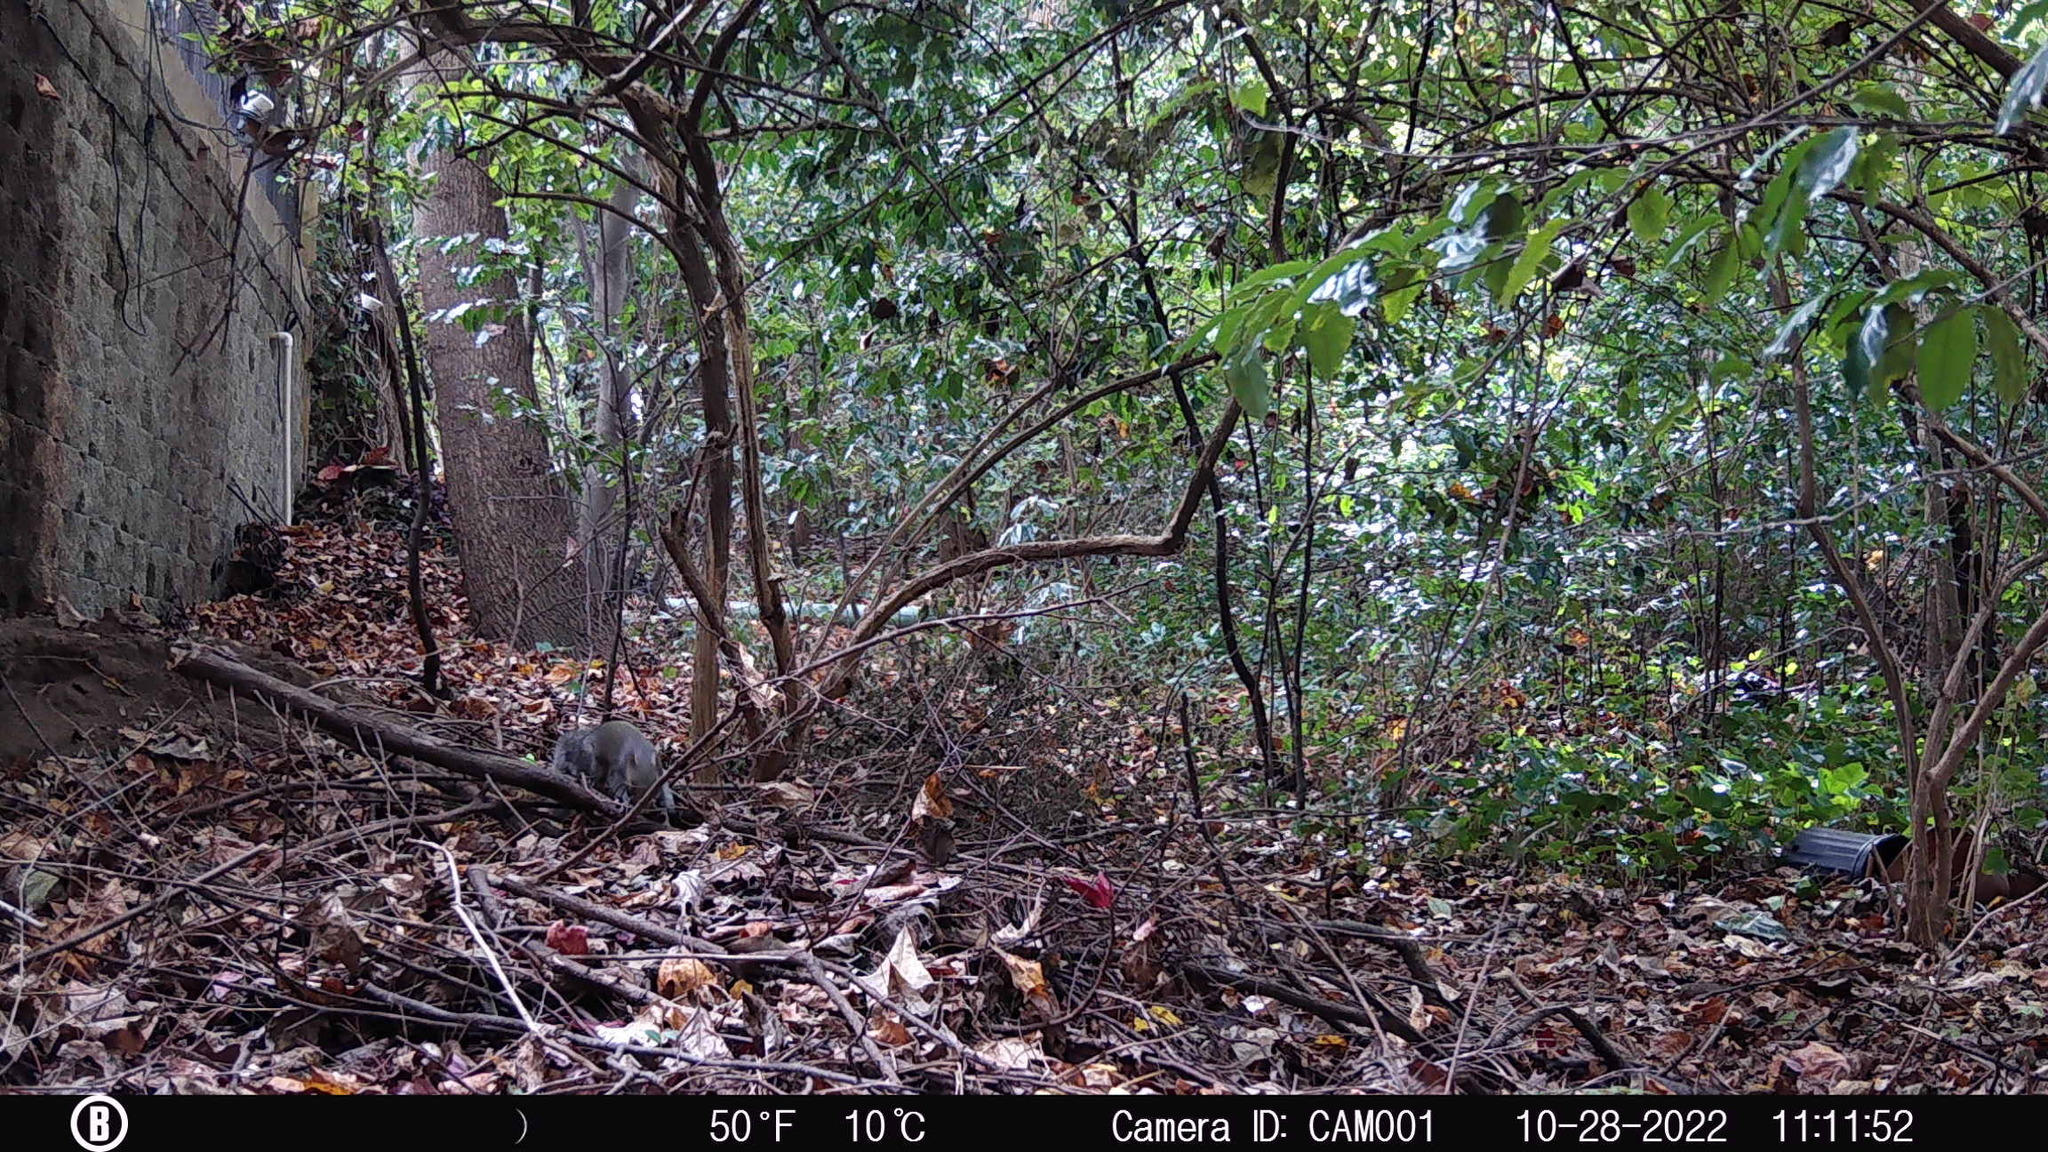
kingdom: Animalia
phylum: Chordata
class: Mammalia
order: Rodentia
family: Sciuridae
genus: Sciurus
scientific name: Sciurus carolinensis
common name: Eastern gray squirrel
